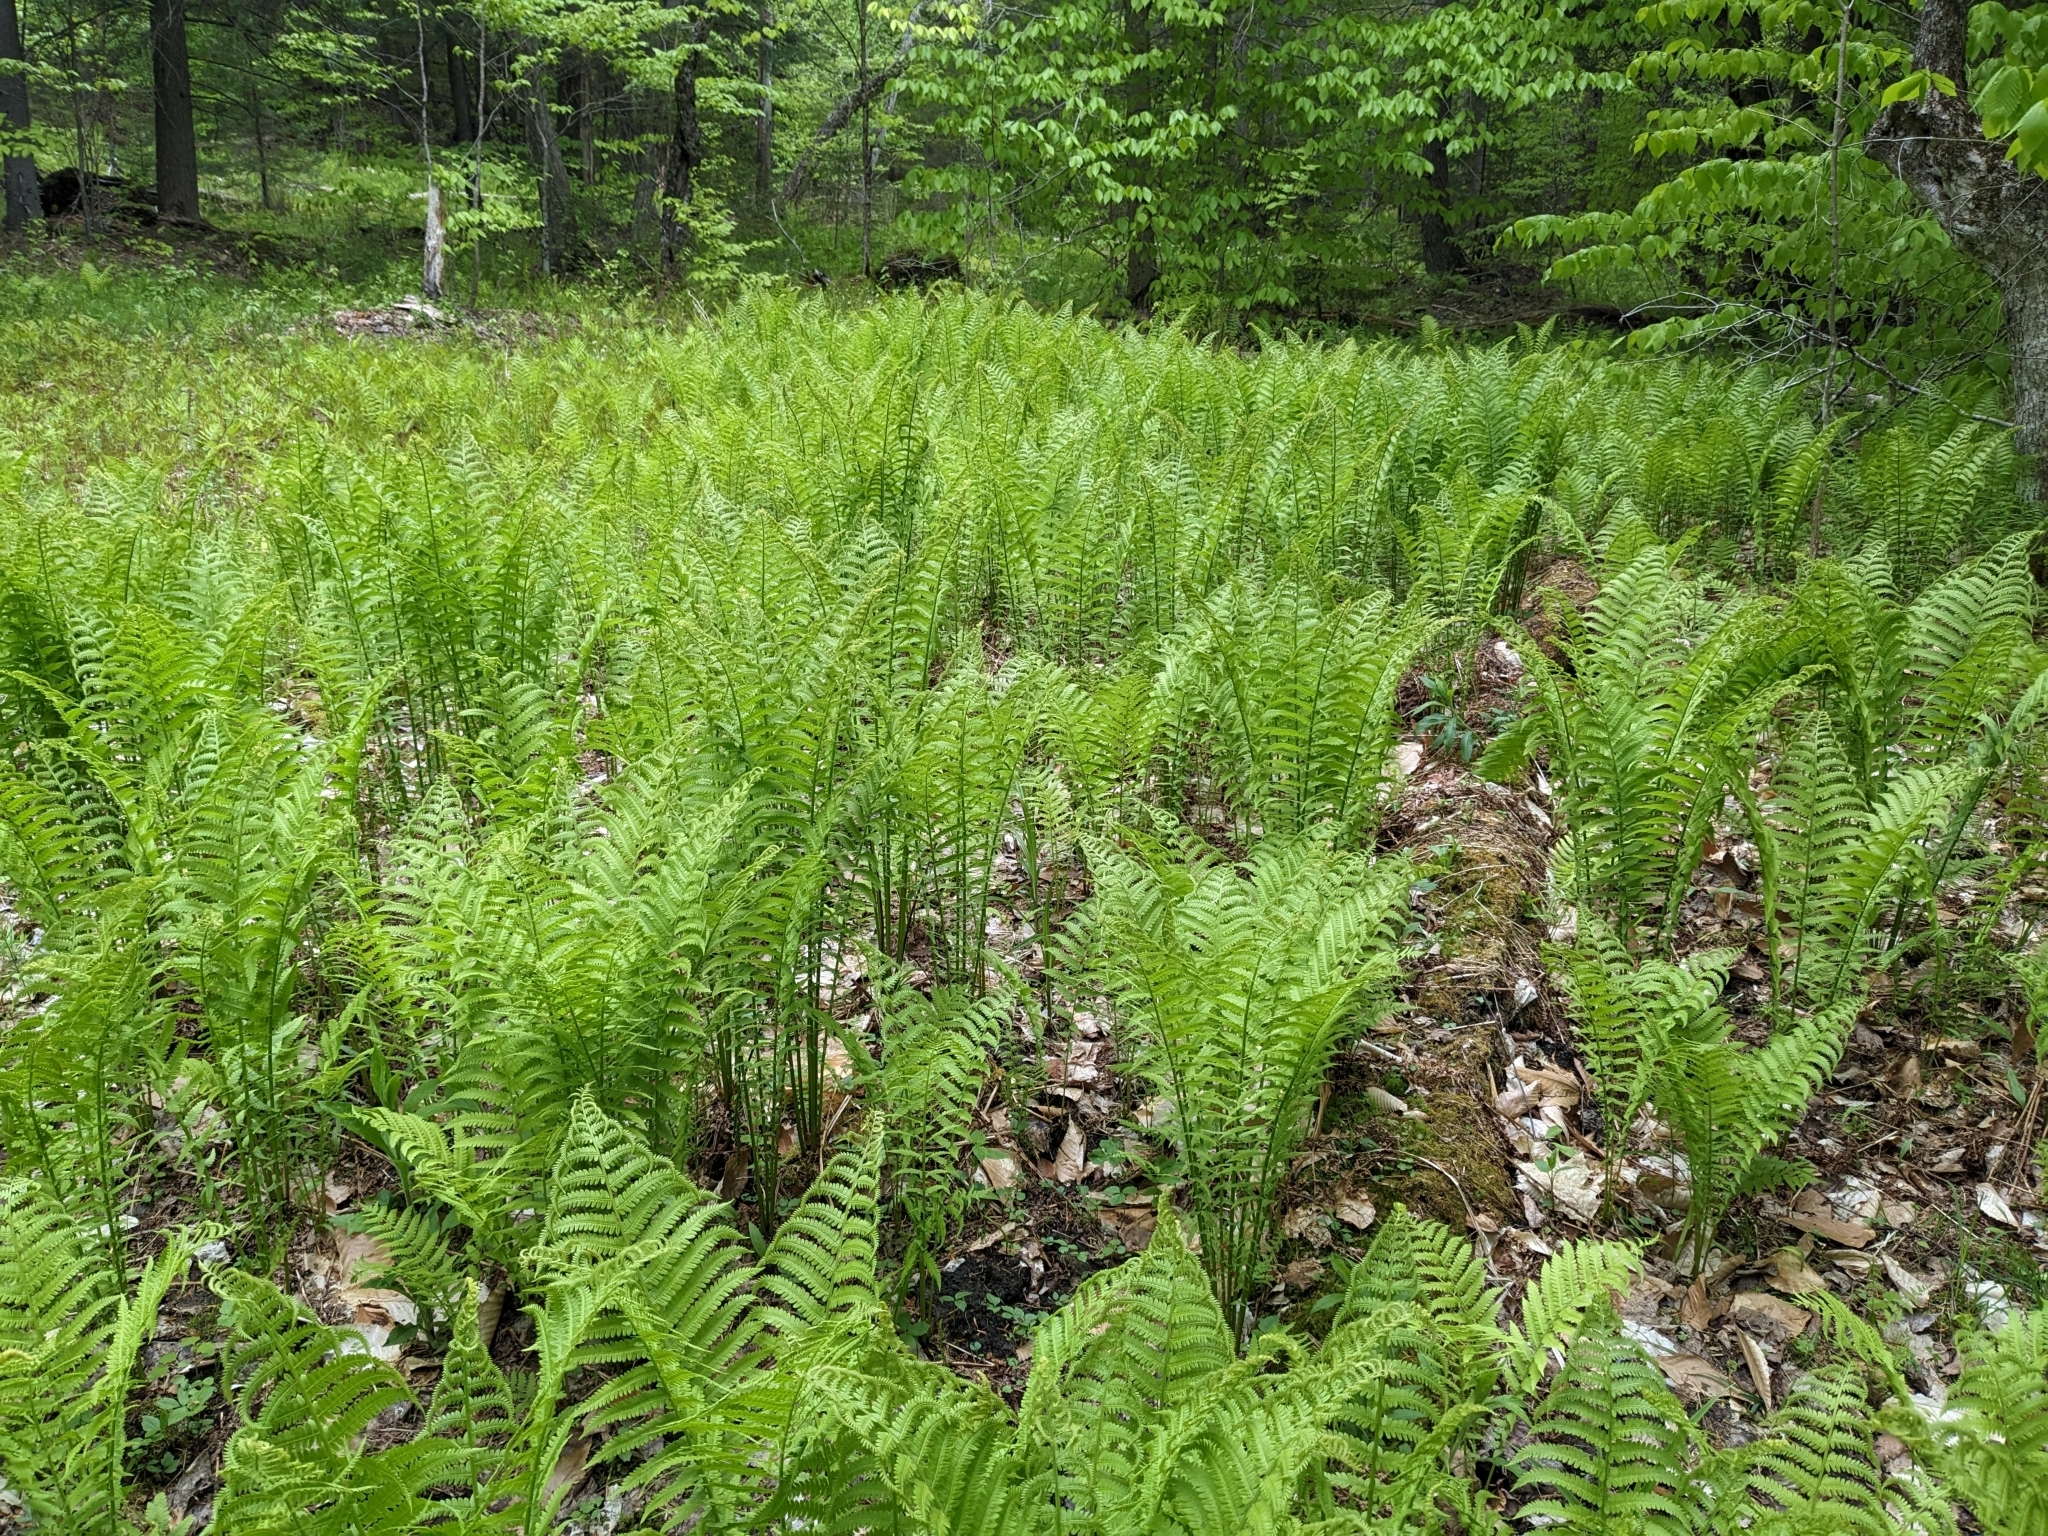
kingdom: Plantae
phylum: Tracheophyta
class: Polypodiopsida
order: Polypodiales
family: Onocleaceae
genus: Matteuccia
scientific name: Matteuccia struthiopteris
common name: Ostrich fern
